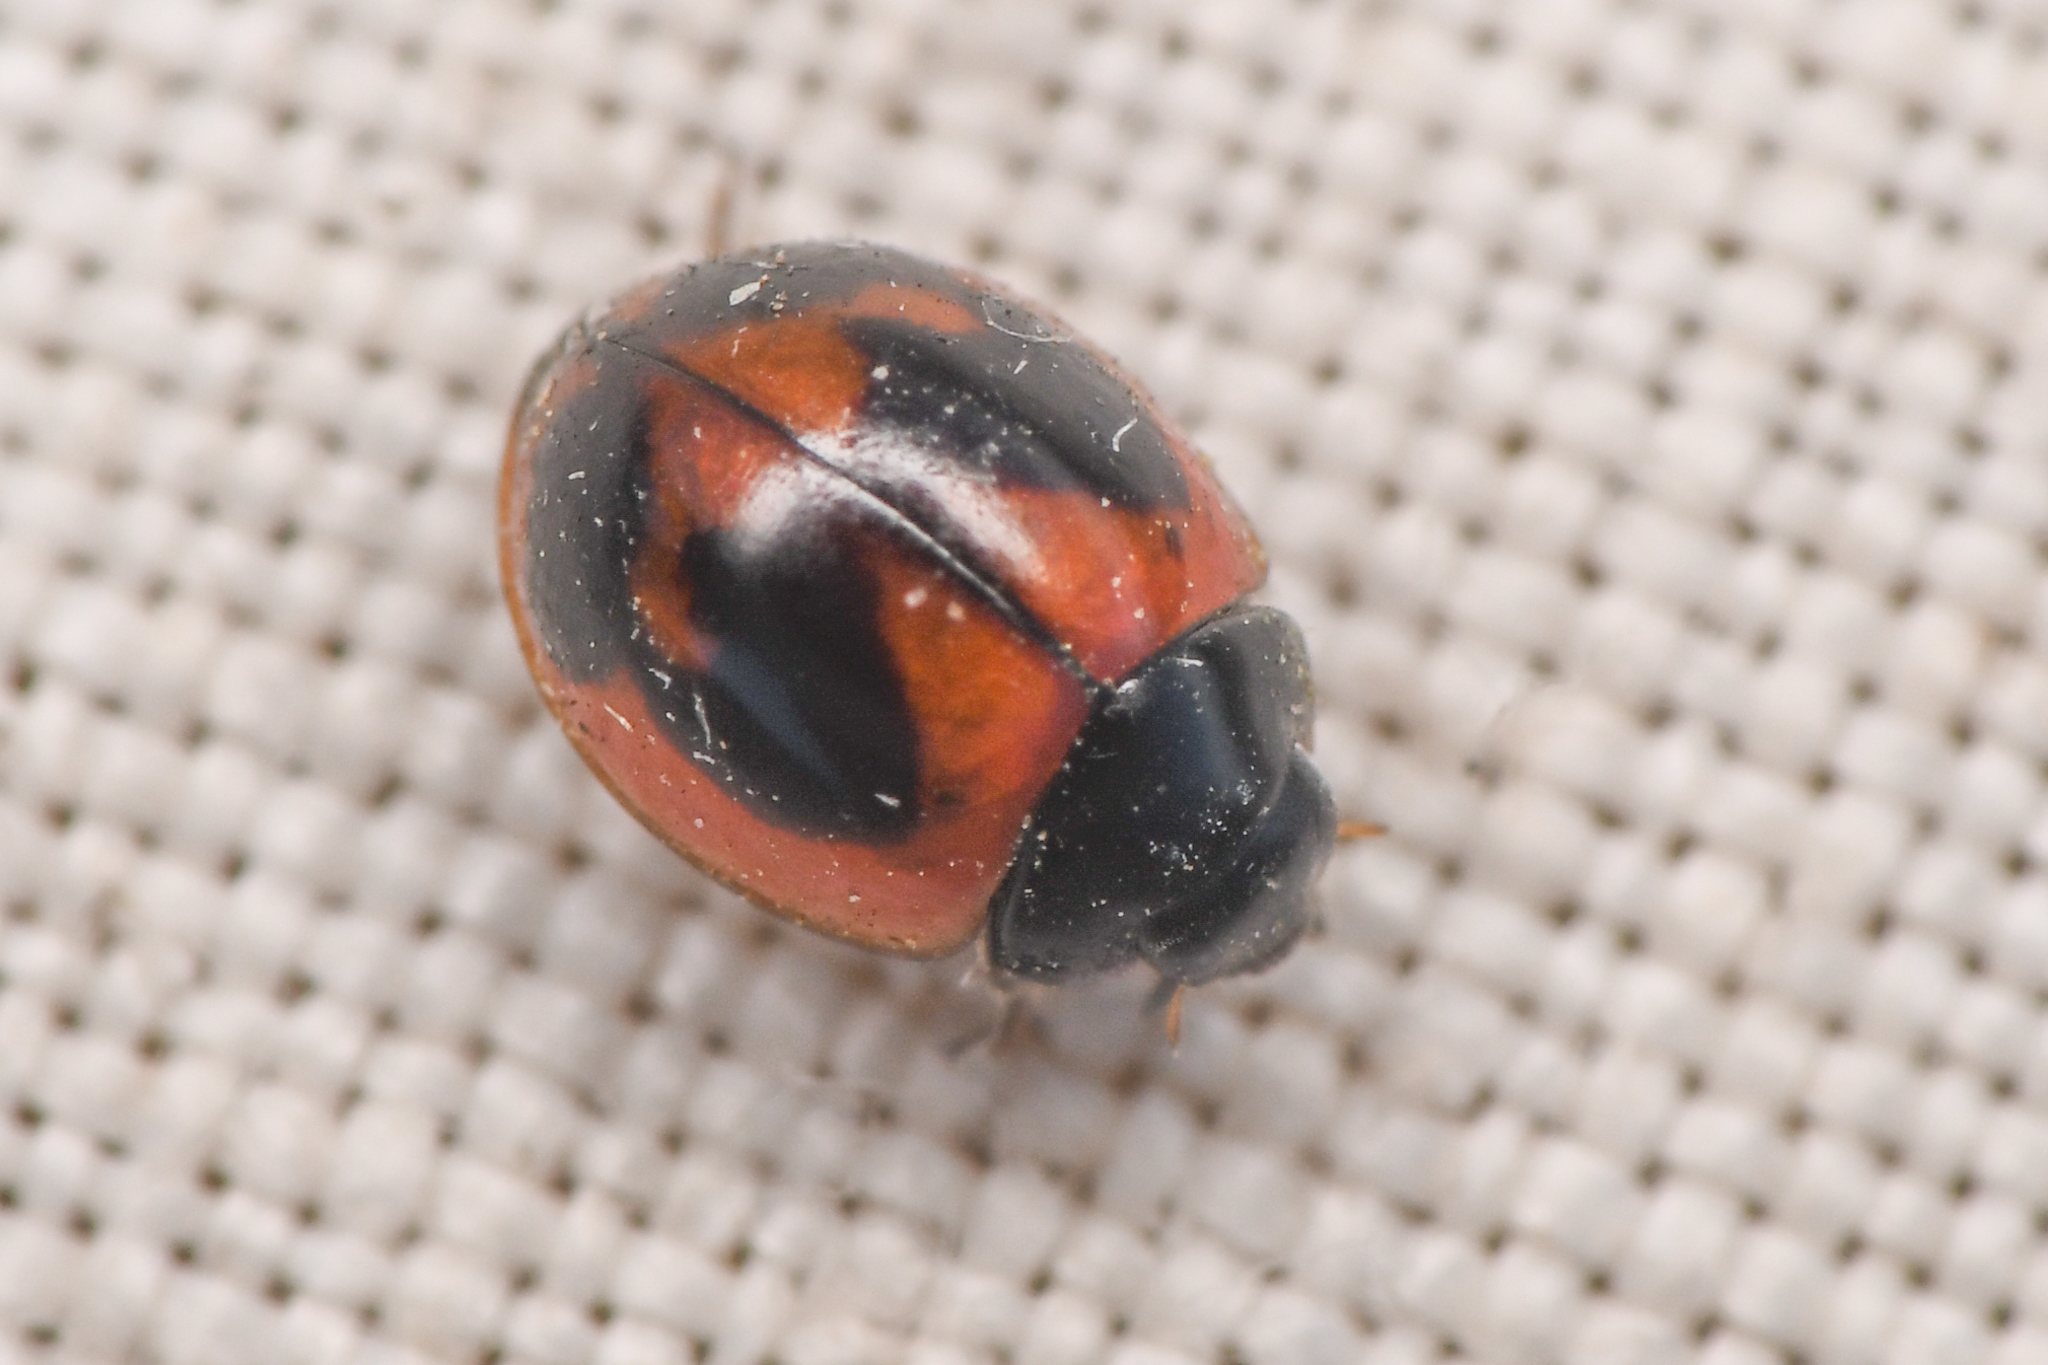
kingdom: Animalia
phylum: Arthropoda
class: Insecta
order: Coleoptera
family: Coccinellidae
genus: Exochomus
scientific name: Exochomus fasciatus
